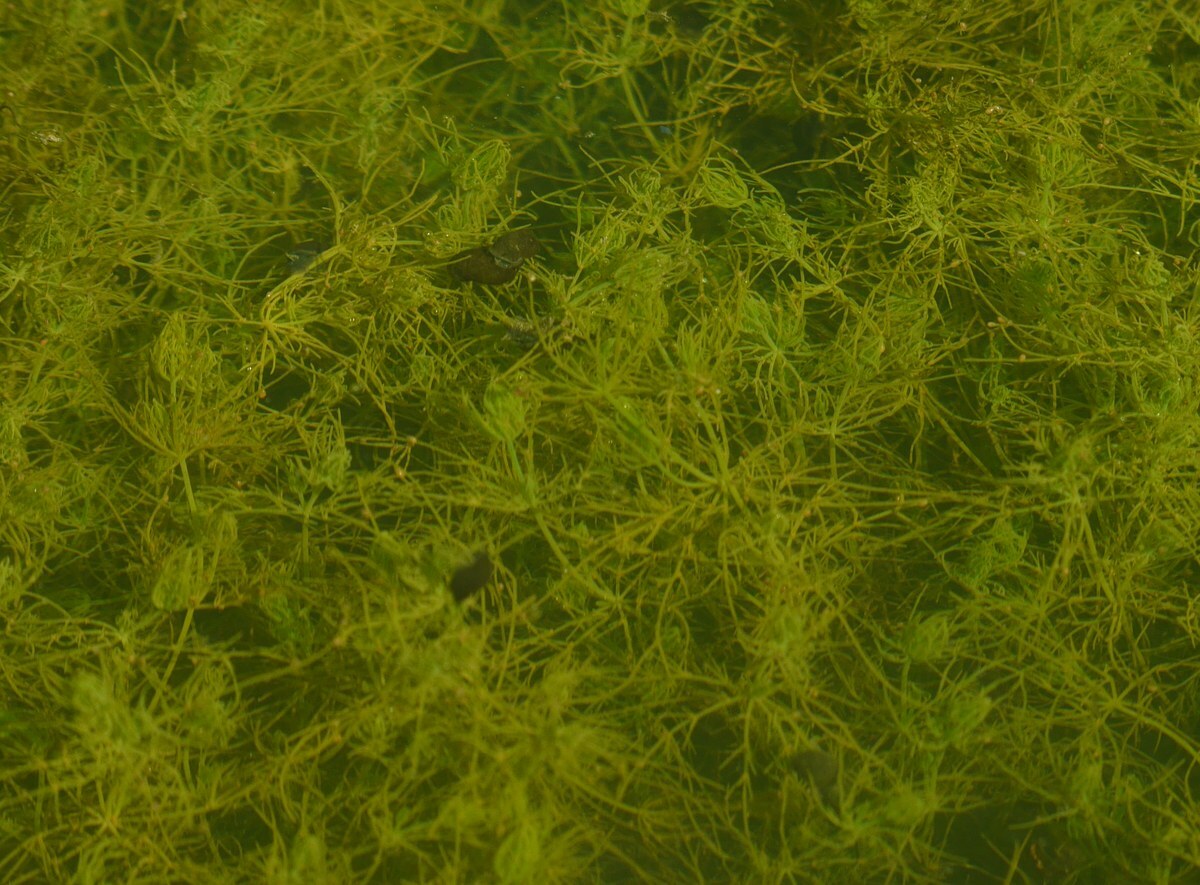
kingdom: Plantae
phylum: Charophyta
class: Charophyceae
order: Charales
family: Characeae
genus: Chara
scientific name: Chara vulgaris
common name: Common stonewort
